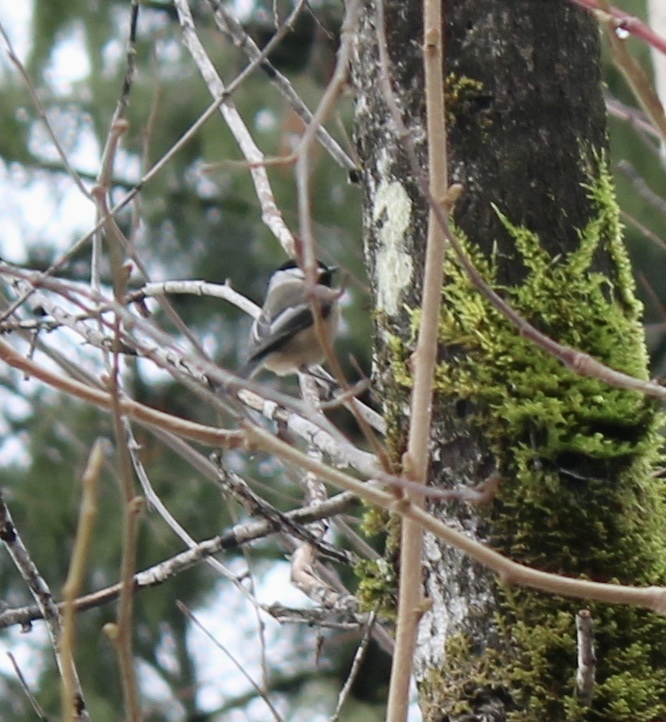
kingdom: Animalia
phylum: Chordata
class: Aves
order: Passeriformes
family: Paridae
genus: Poecile
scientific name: Poecile atricapillus
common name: Black-capped chickadee
